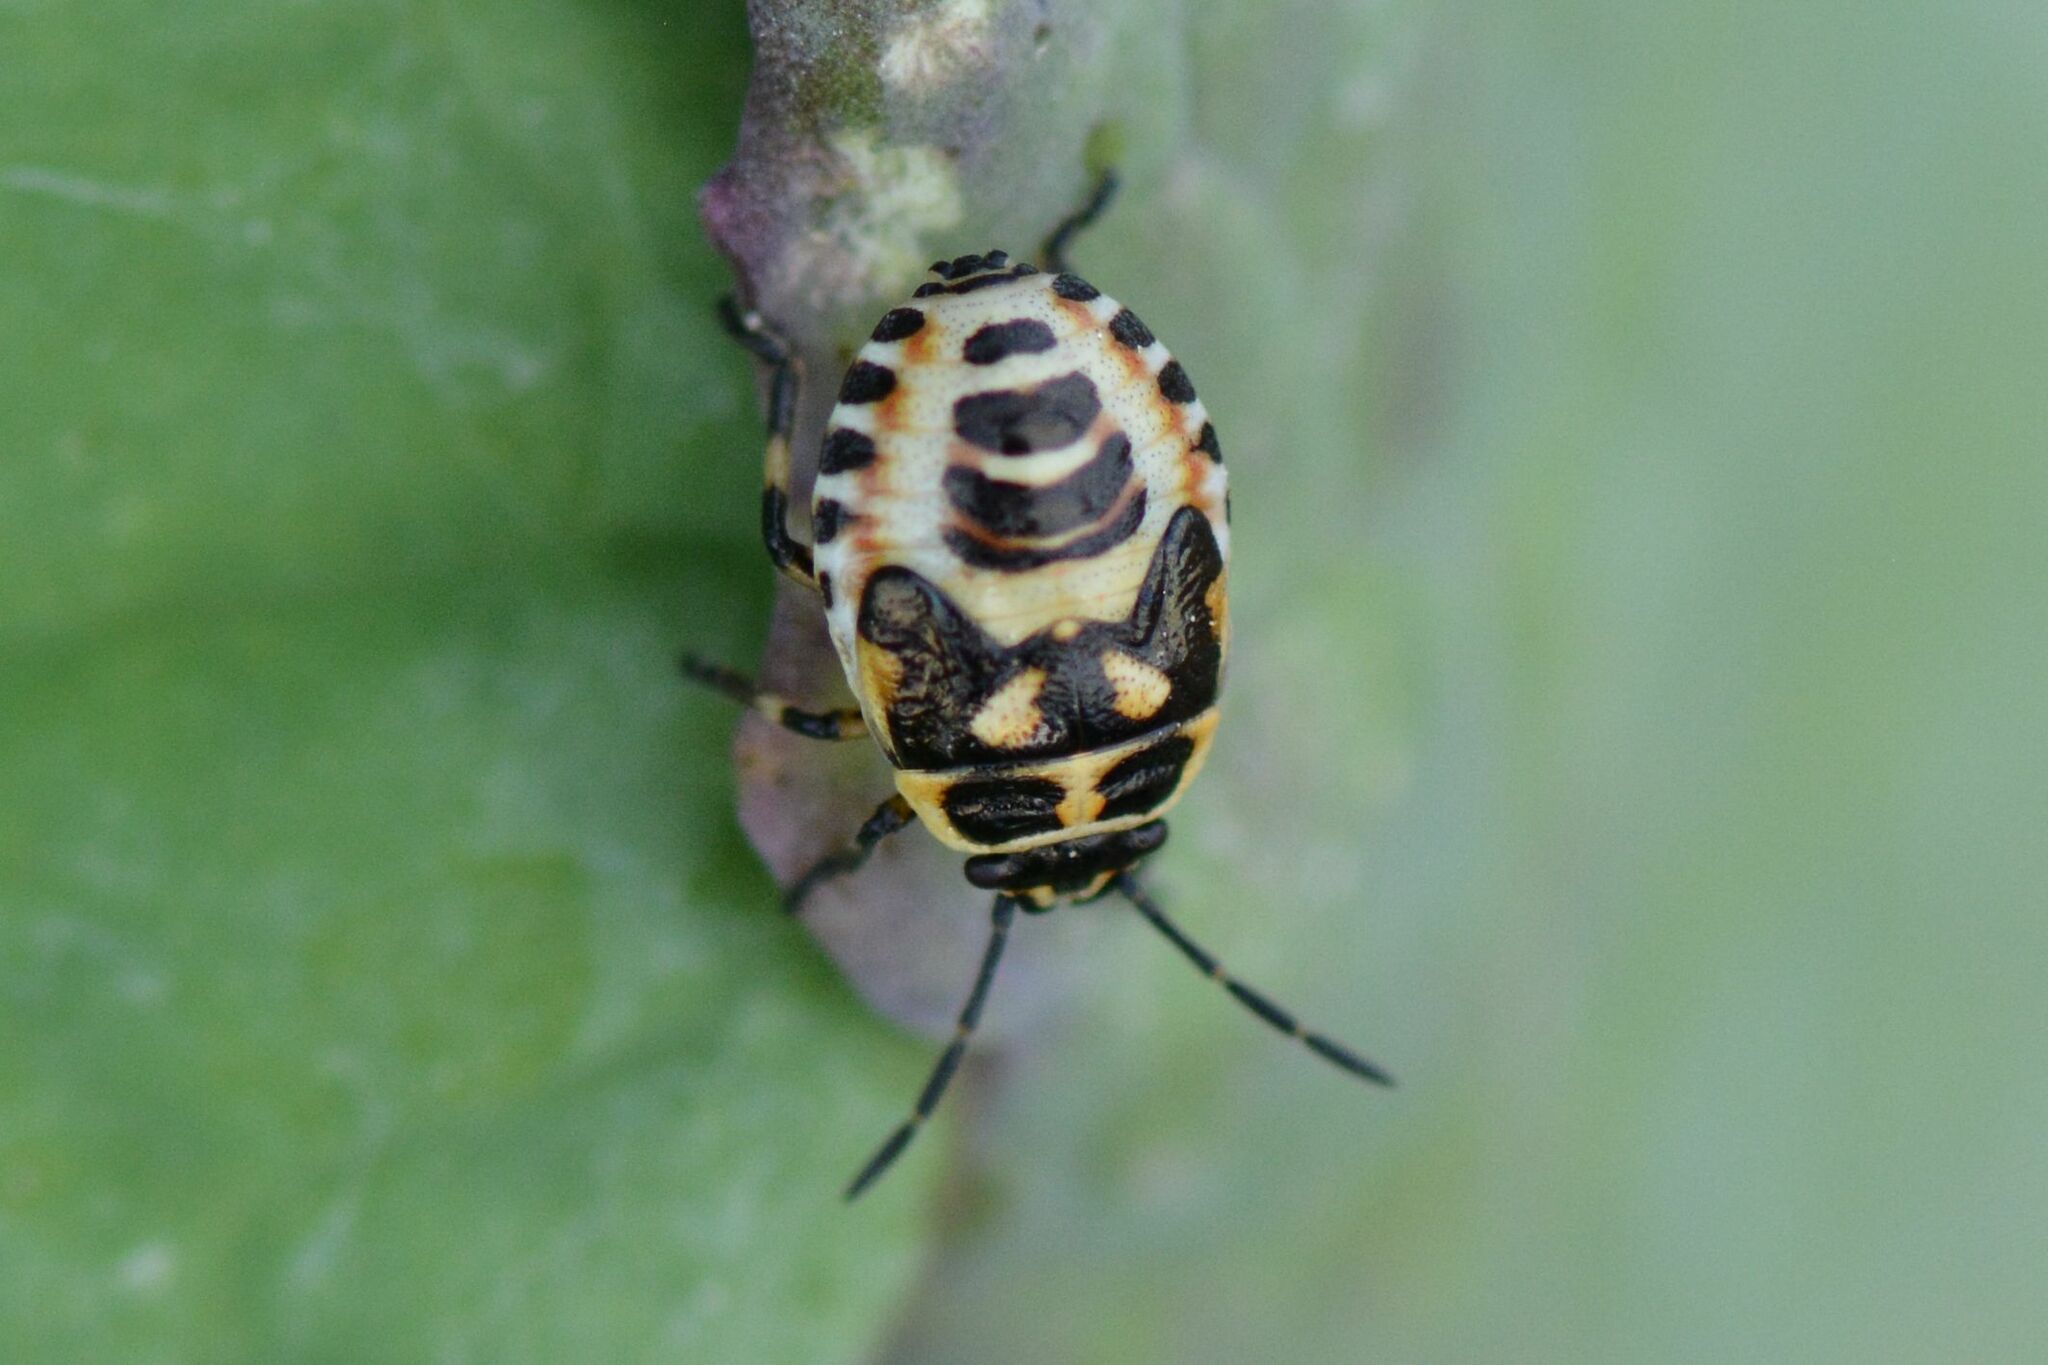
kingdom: Animalia
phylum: Arthropoda
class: Insecta
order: Hemiptera
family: Pentatomidae
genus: Eurydema
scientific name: Eurydema ornata
